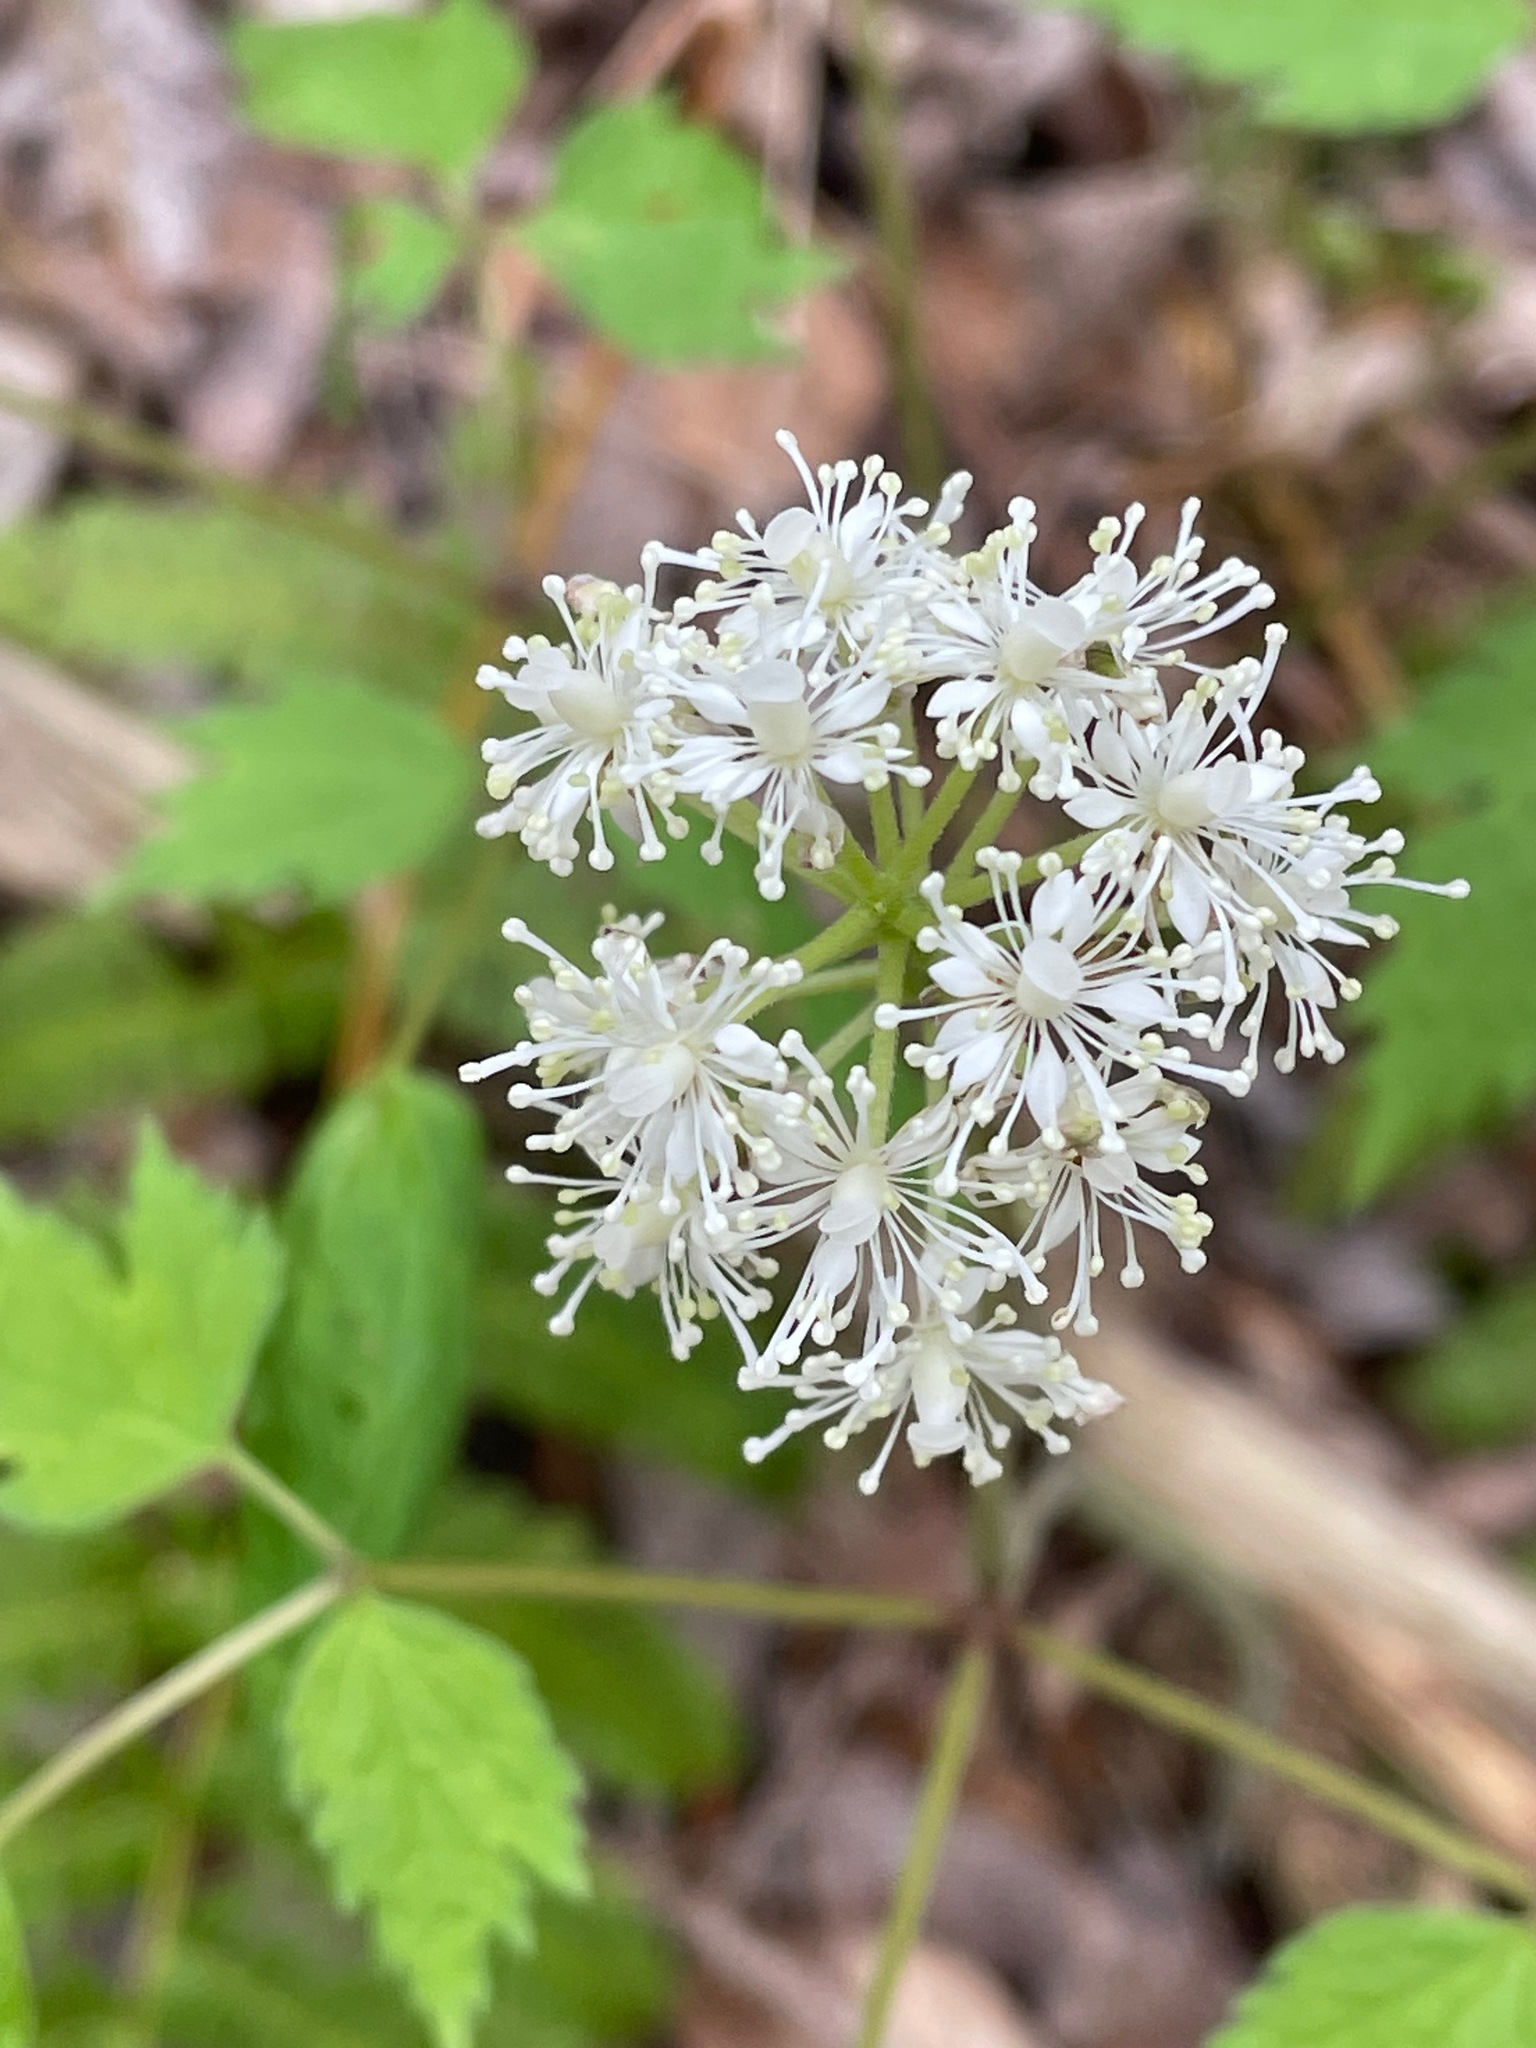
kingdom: Plantae
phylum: Tracheophyta
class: Magnoliopsida
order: Ranunculales
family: Ranunculaceae
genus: Actaea
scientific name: Actaea pachypoda
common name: Doll's-eyes
